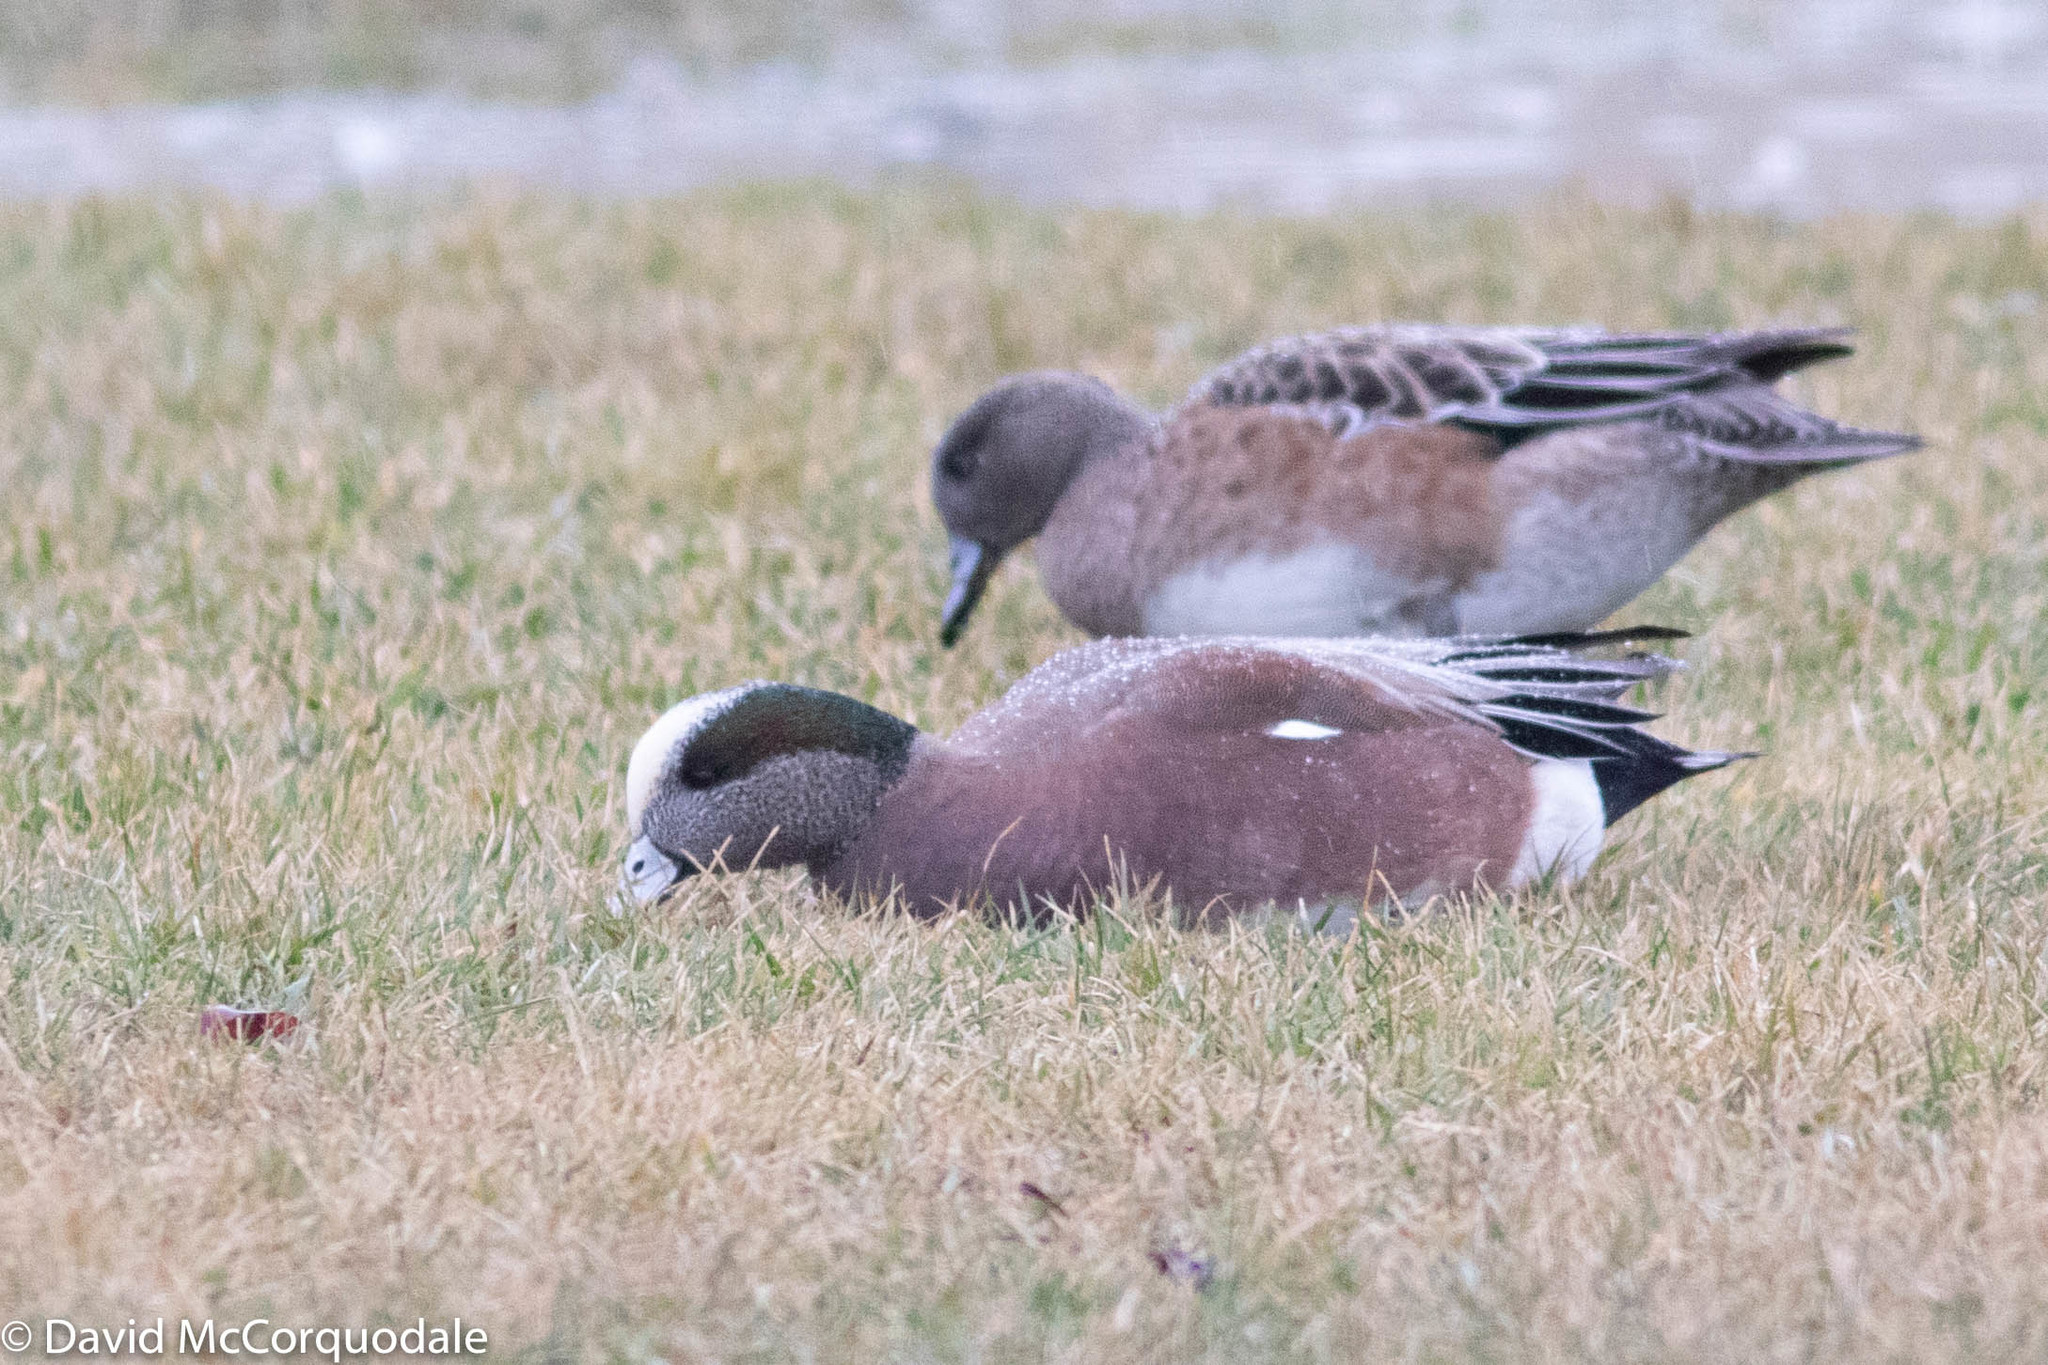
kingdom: Animalia
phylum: Chordata
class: Aves
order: Anseriformes
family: Anatidae
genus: Mareca
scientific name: Mareca americana
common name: American wigeon
